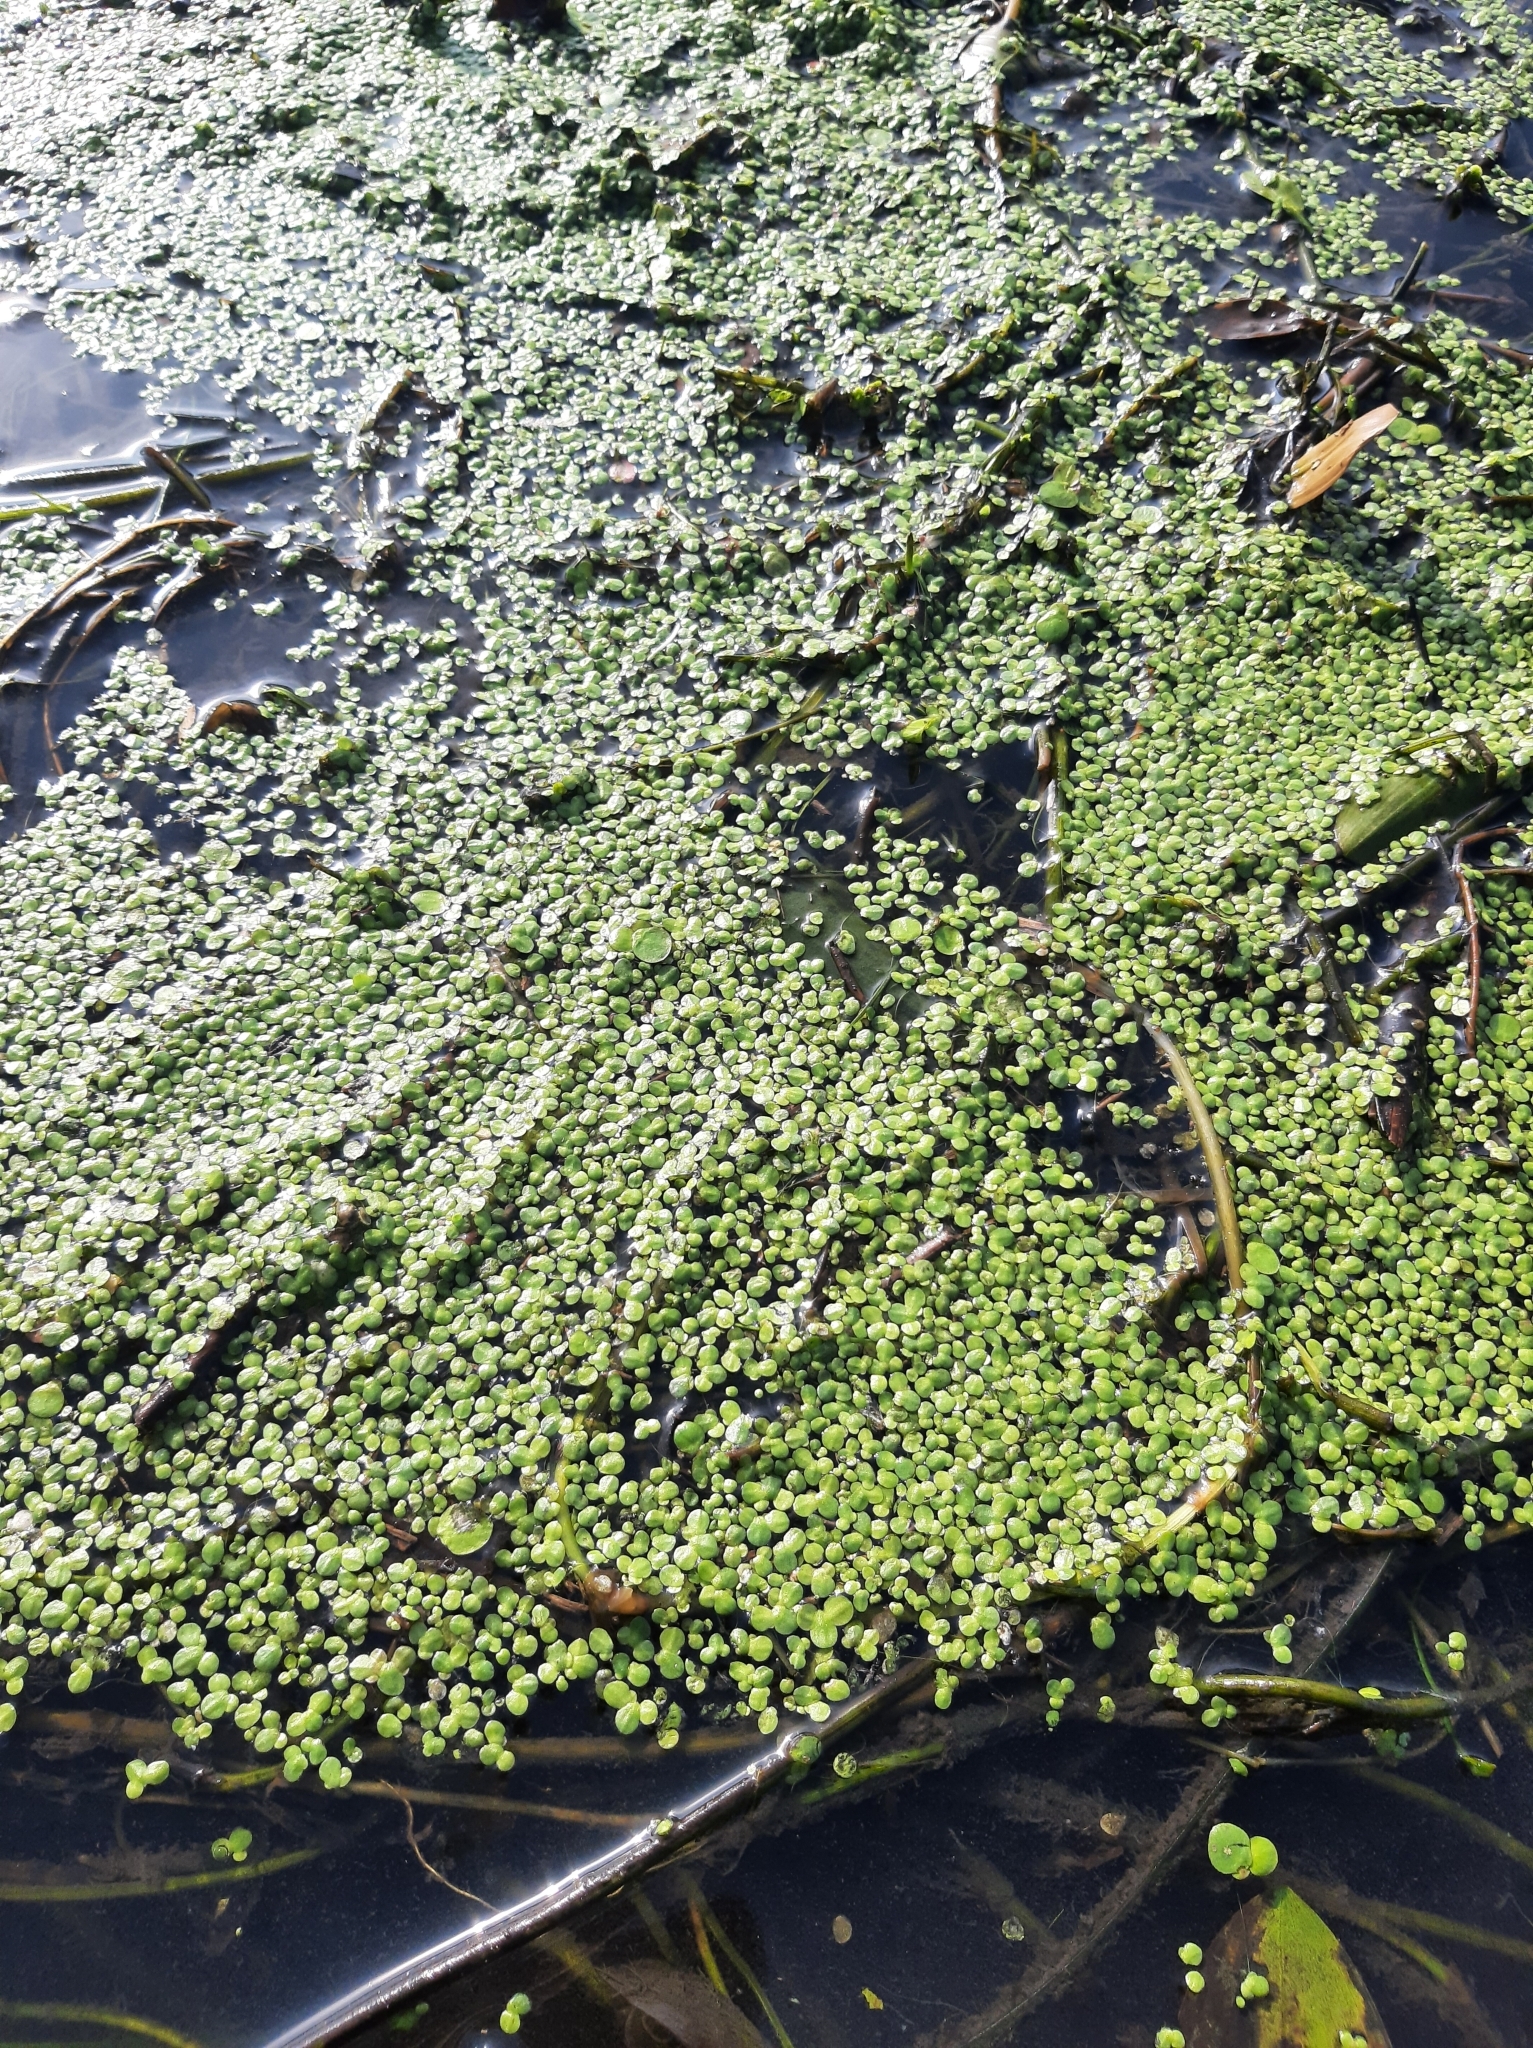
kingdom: Plantae
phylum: Tracheophyta
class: Liliopsida
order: Alismatales
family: Araceae
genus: Lemna
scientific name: Lemna minor
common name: Common duckweed
